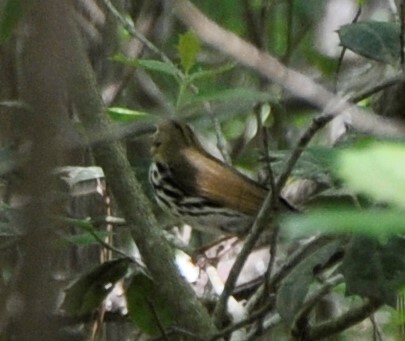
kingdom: Animalia
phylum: Chordata
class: Aves
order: Passeriformes
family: Parulidae
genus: Seiurus
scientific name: Seiurus aurocapilla
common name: Ovenbird
